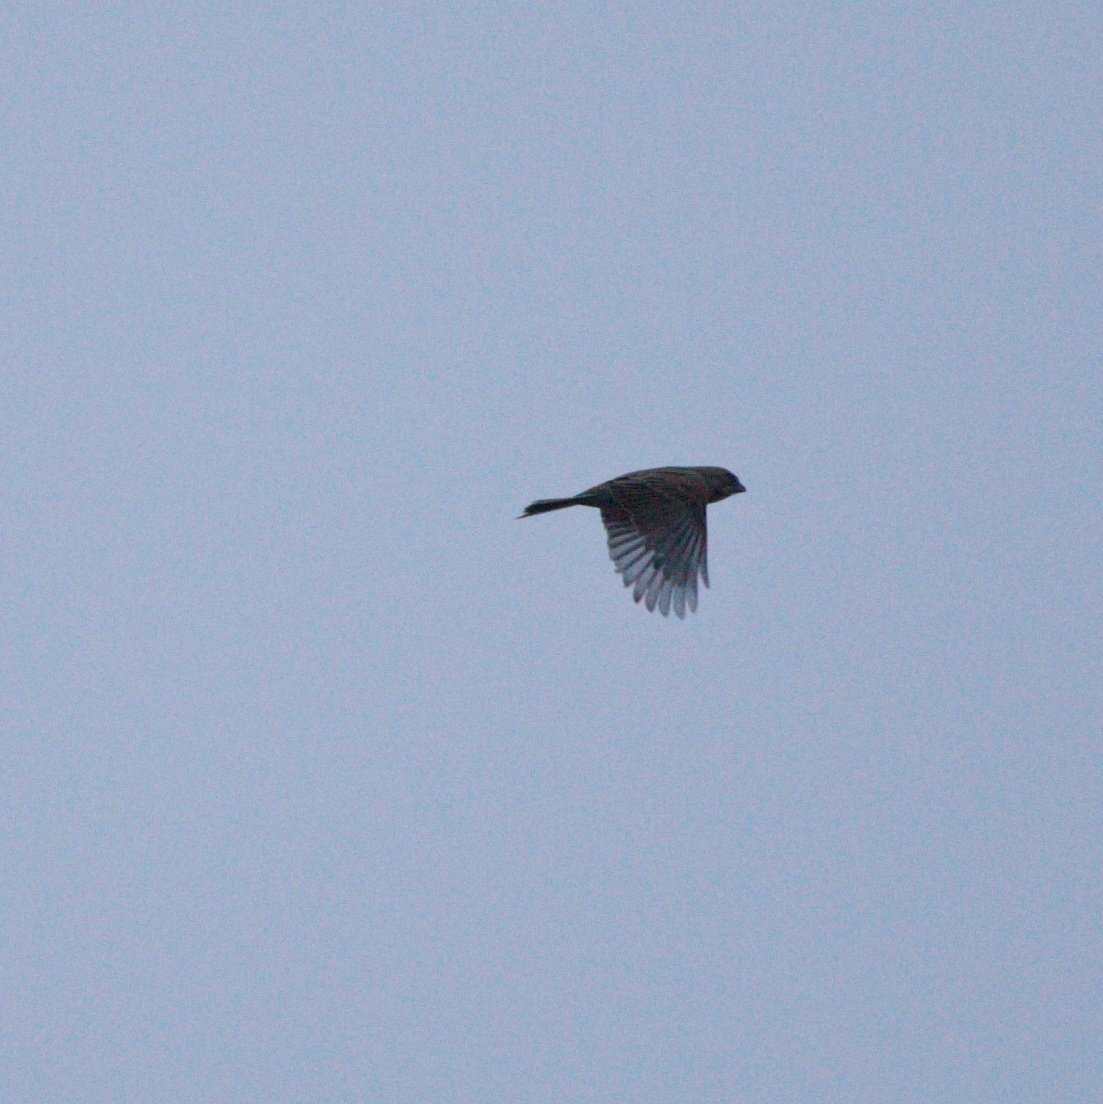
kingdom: Animalia
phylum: Chordata
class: Aves
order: Passeriformes
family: Emberizidae
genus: Emberiza
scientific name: Emberiza schoeniclus
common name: Reed bunting
